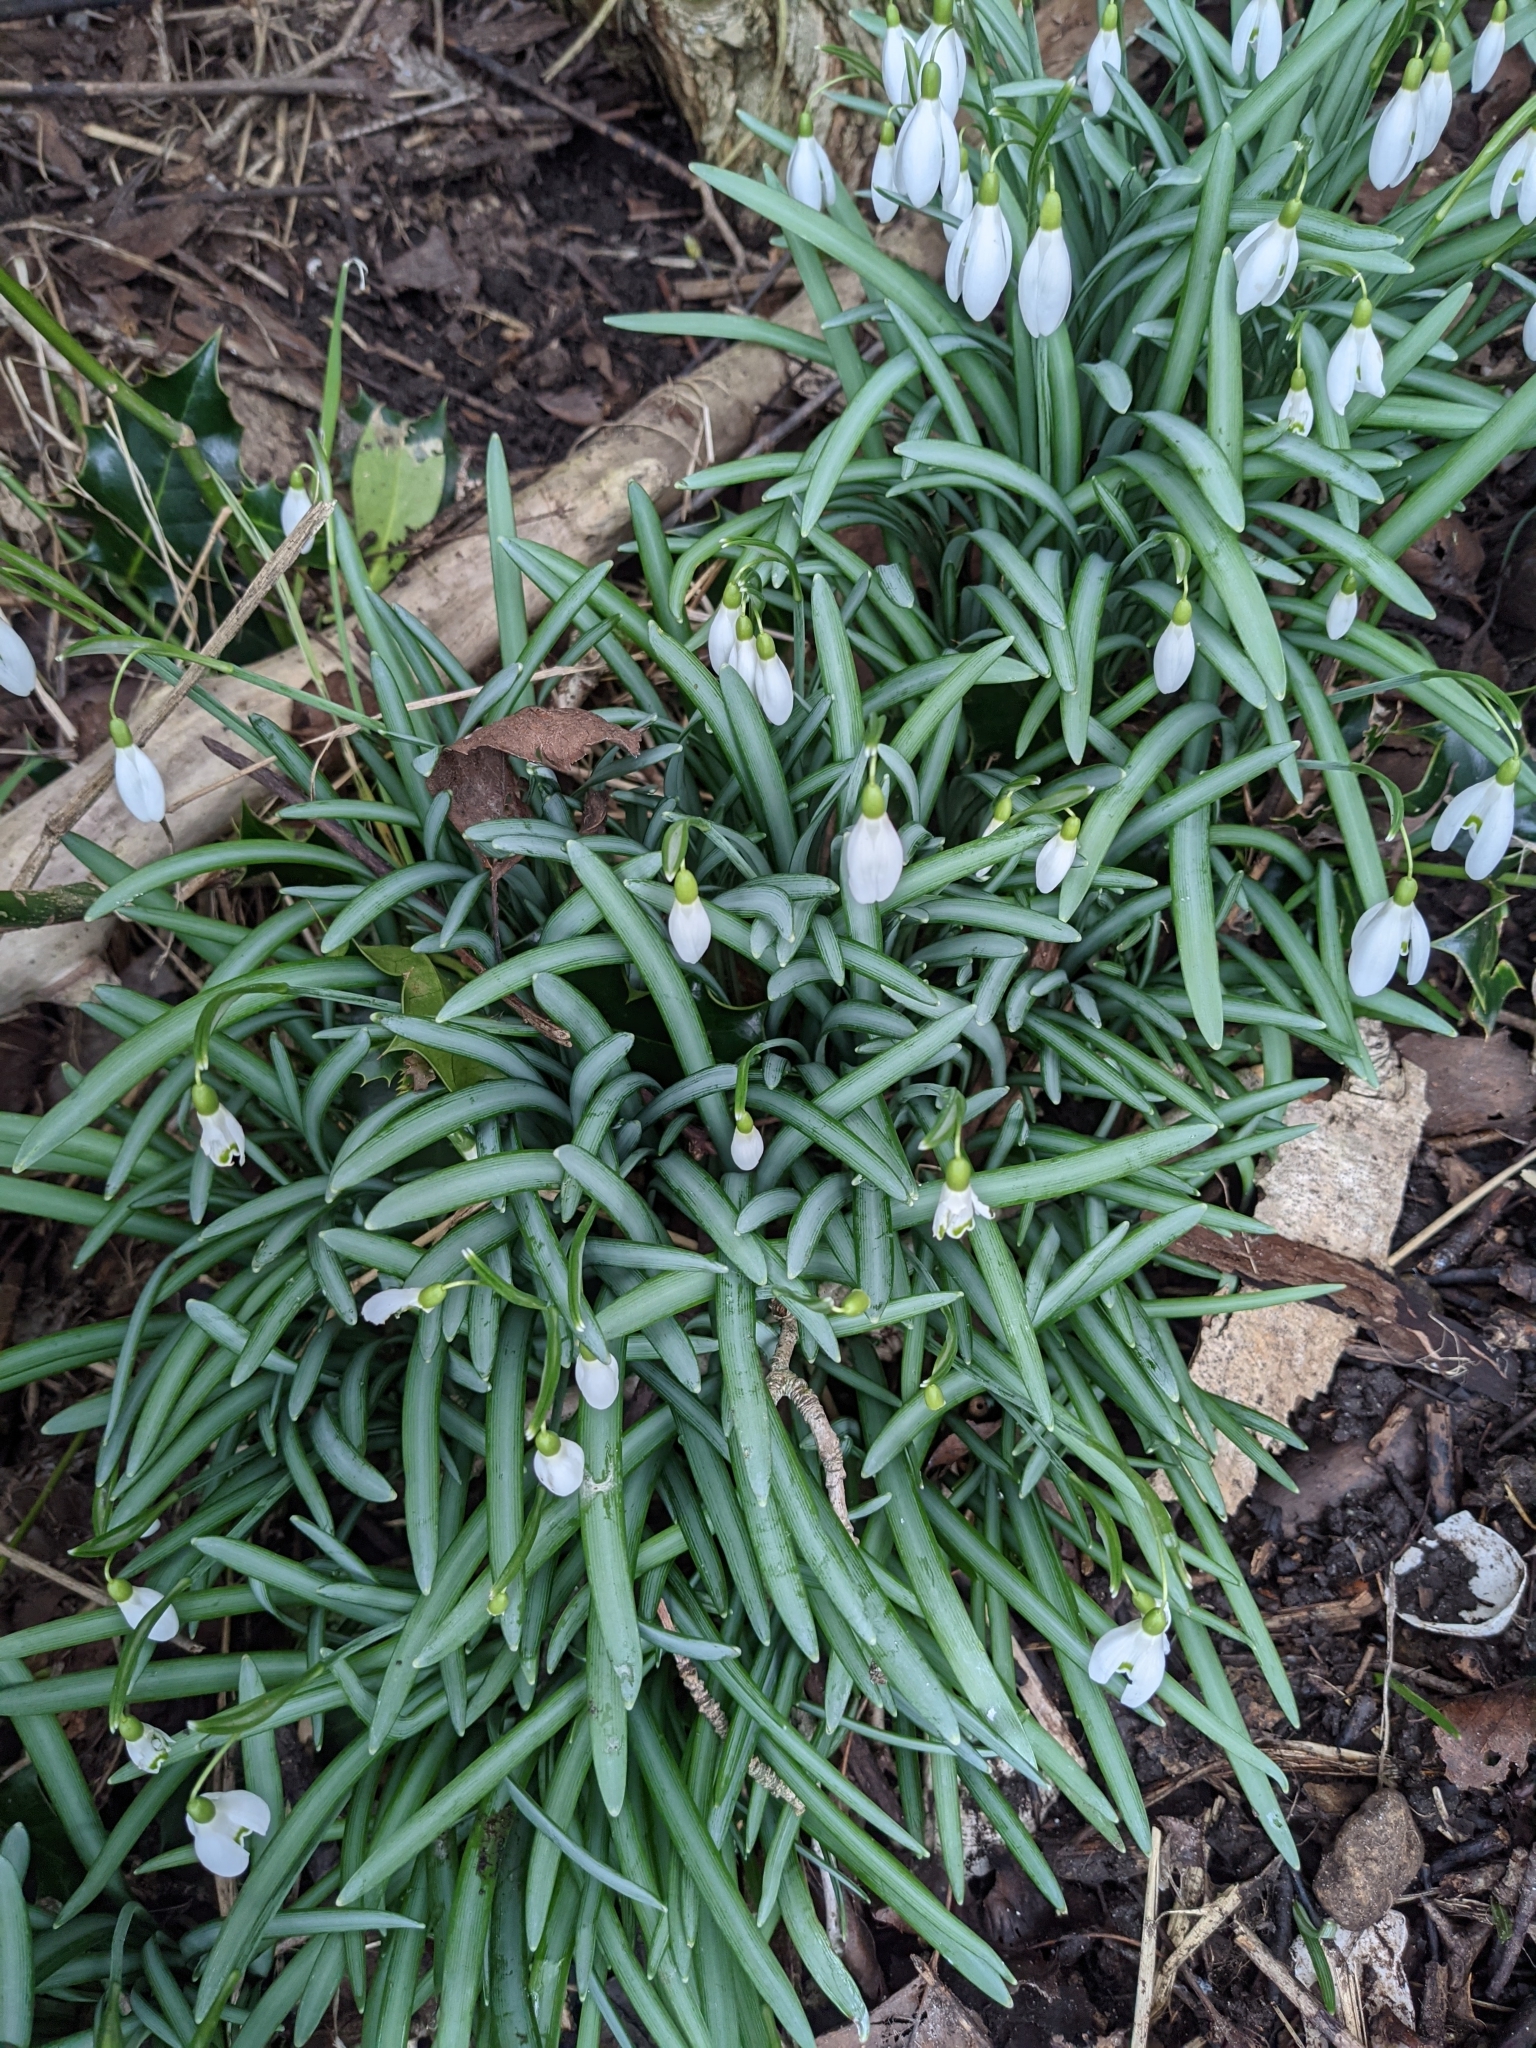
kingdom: Plantae
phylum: Tracheophyta
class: Liliopsida
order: Asparagales
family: Amaryllidaceae
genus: Galanthus
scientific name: Galanthus nivalis
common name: Snowdrop
